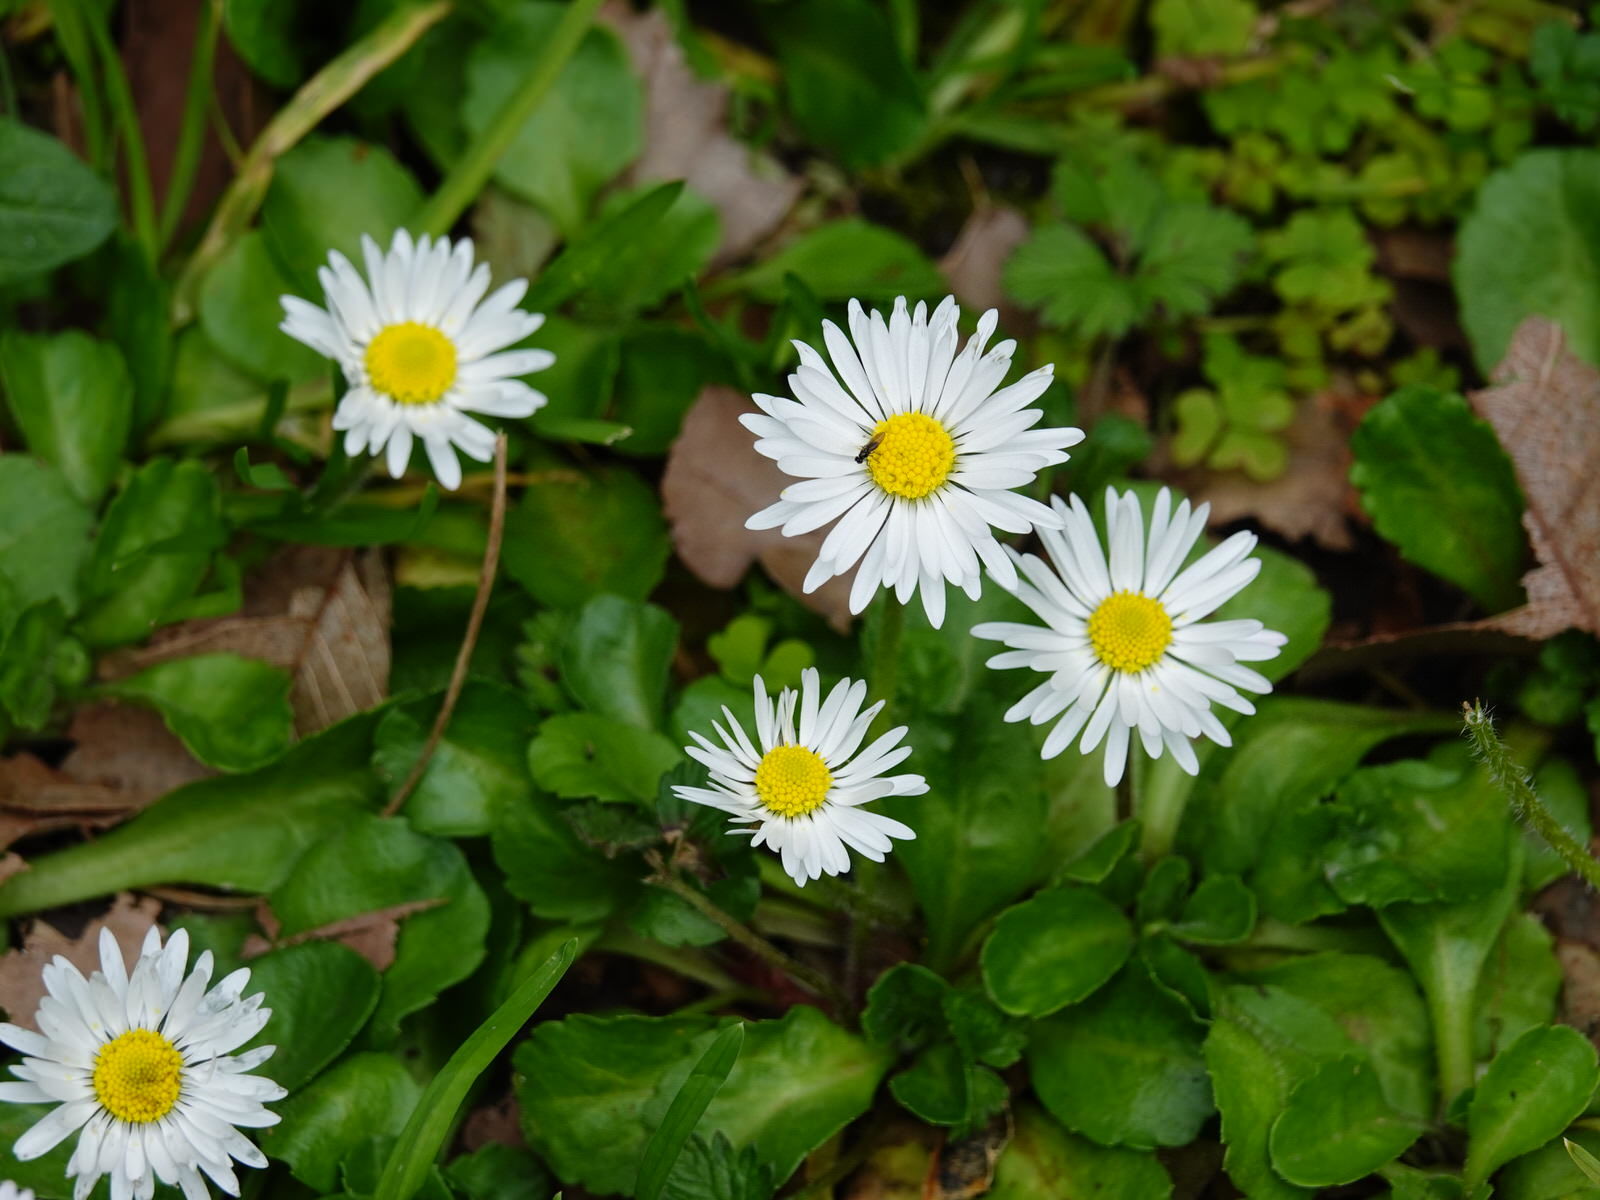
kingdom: Plantae
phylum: Tracheophyta
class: Magnoliopsida
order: Asterales
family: Asteraceae
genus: Bellis
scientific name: Bellis perennis
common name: Lawndaisy
